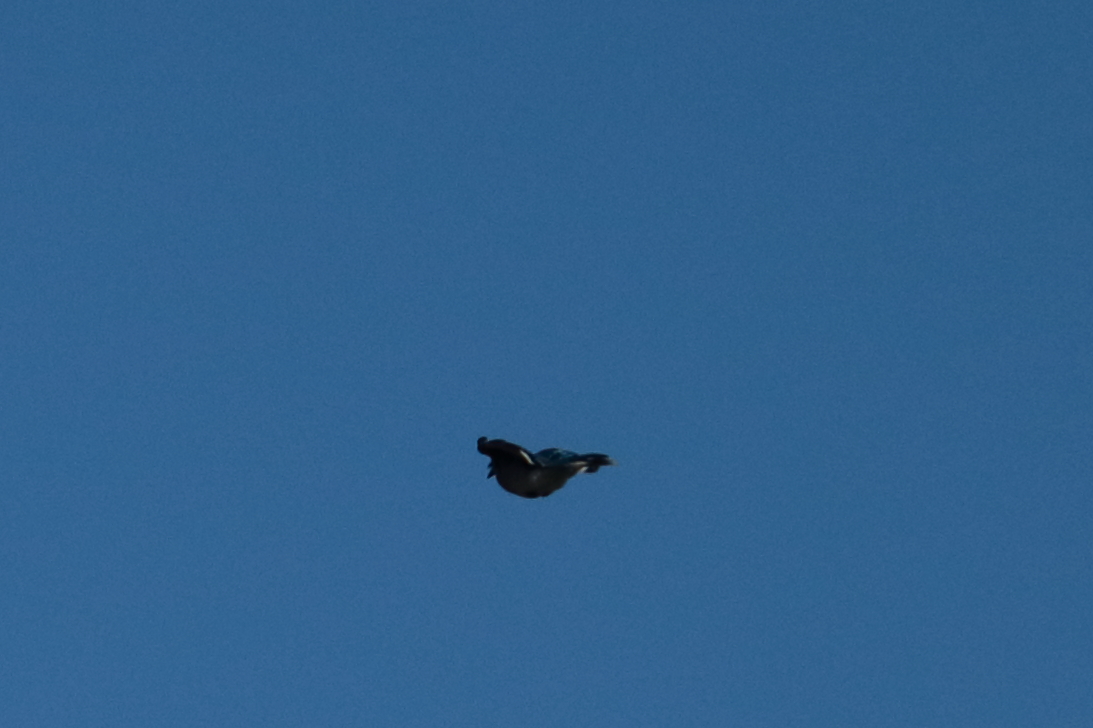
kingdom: Animalia
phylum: Chordata
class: Aves
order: Passeriformes
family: Corvidae
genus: Cyanocitta
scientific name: Cyanocitta cristata
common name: Blue jay
